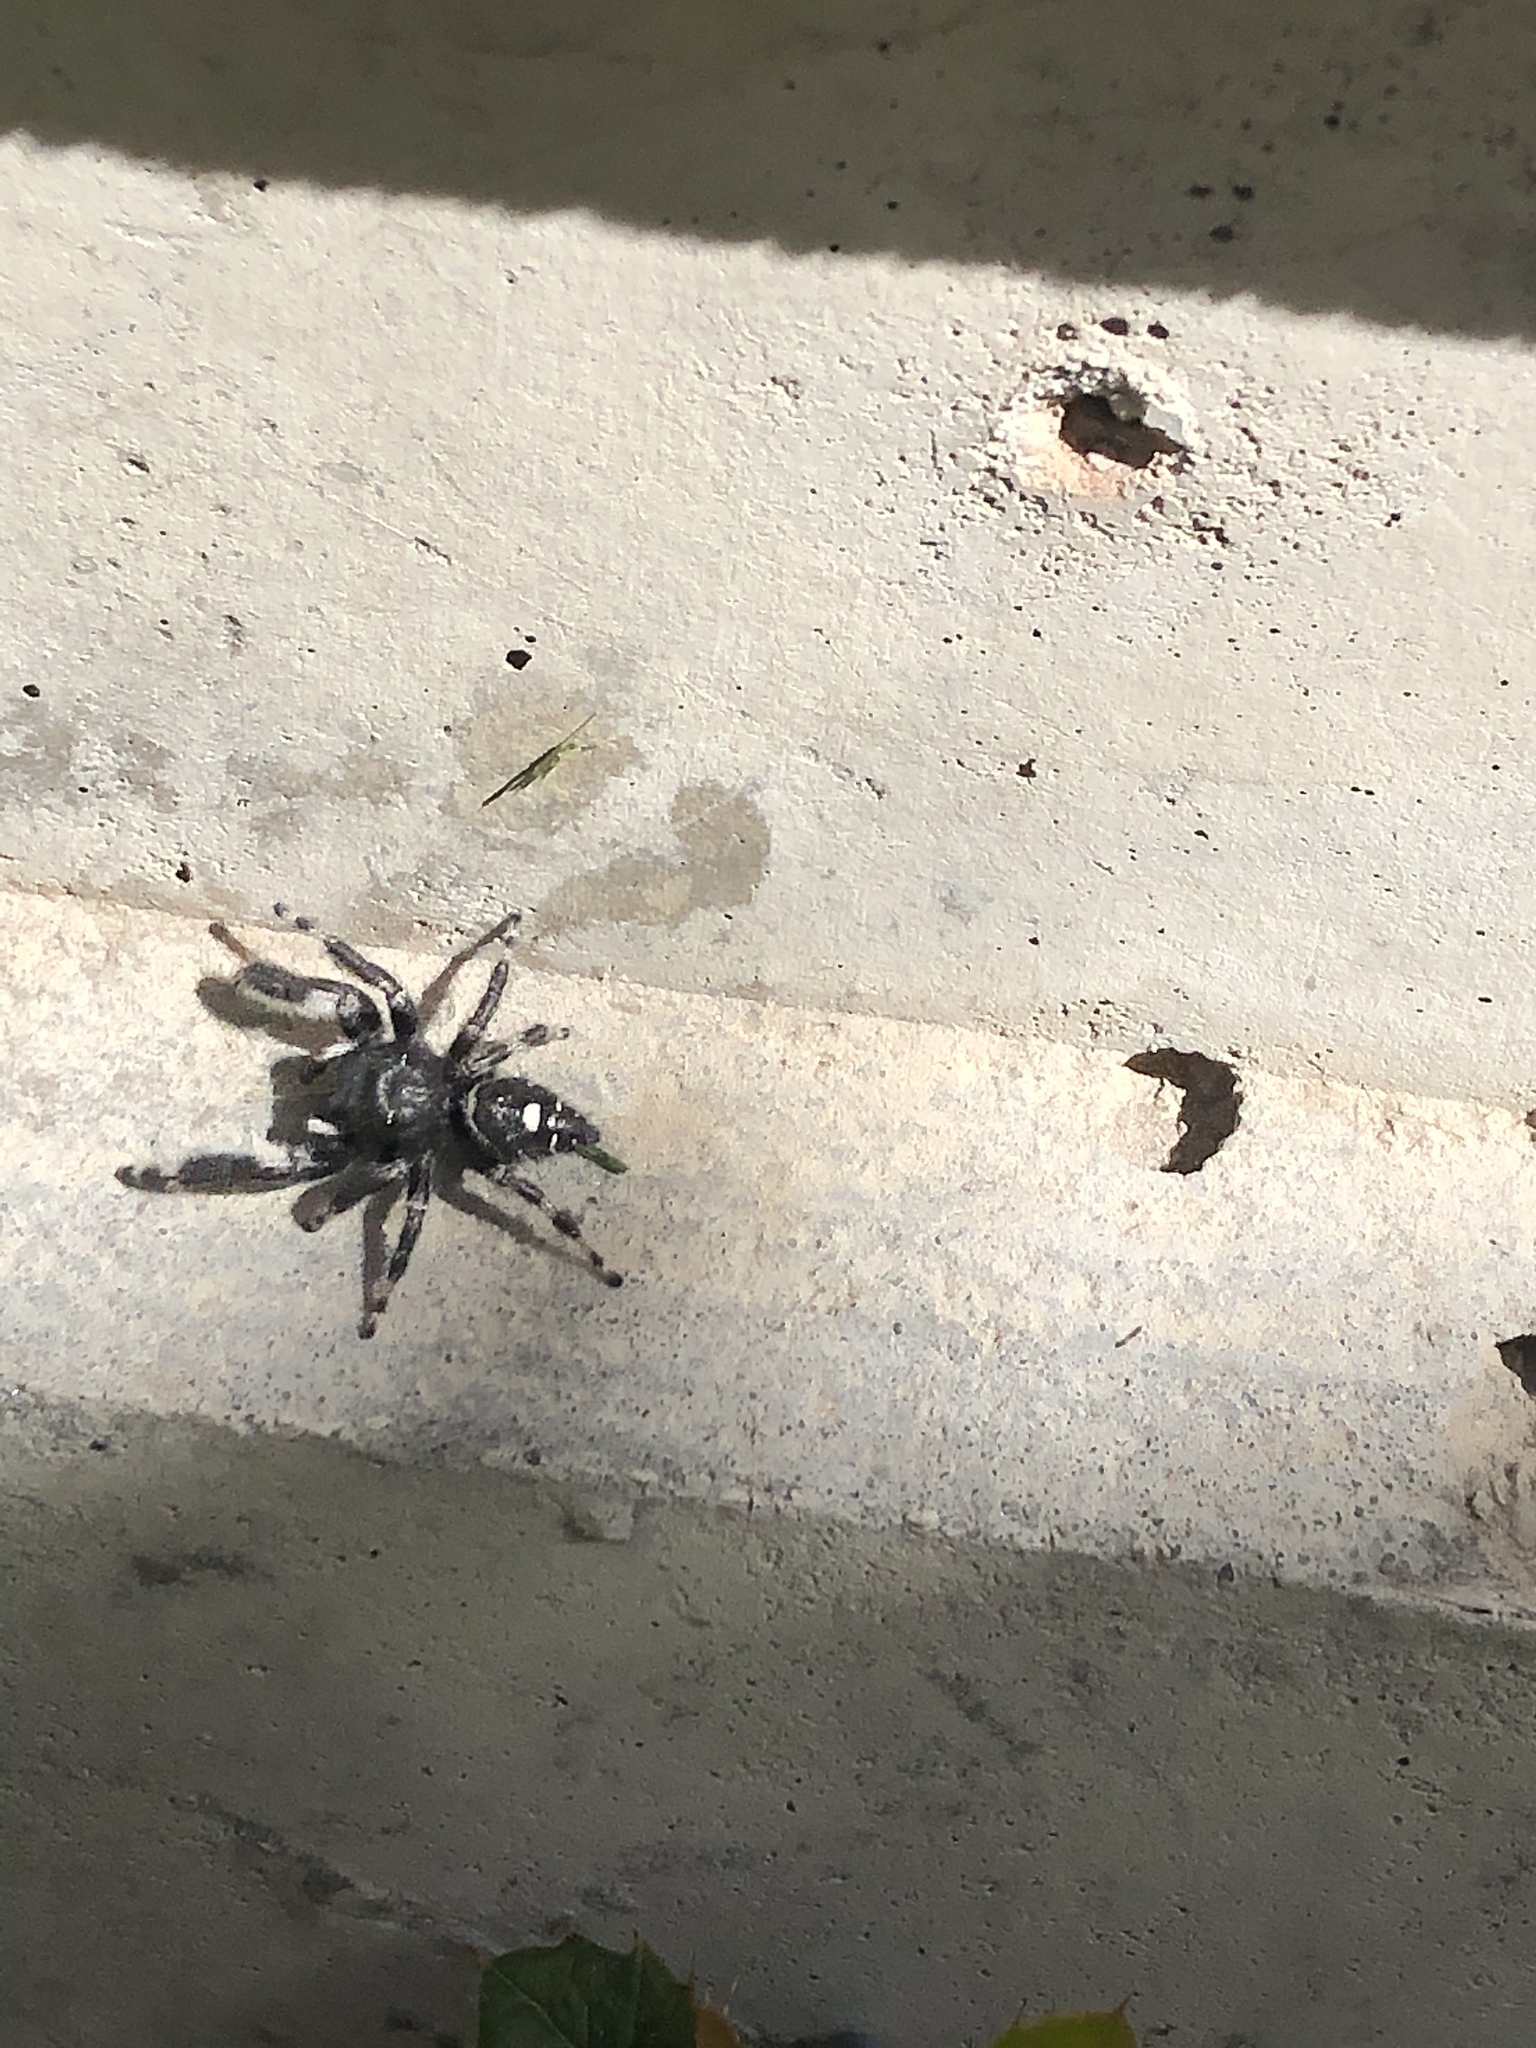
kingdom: Animalia
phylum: Arthropoda
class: Arachnida
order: Araneae
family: Salticidae
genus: Phidippus
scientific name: Phidippus audax
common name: Bold jumper
